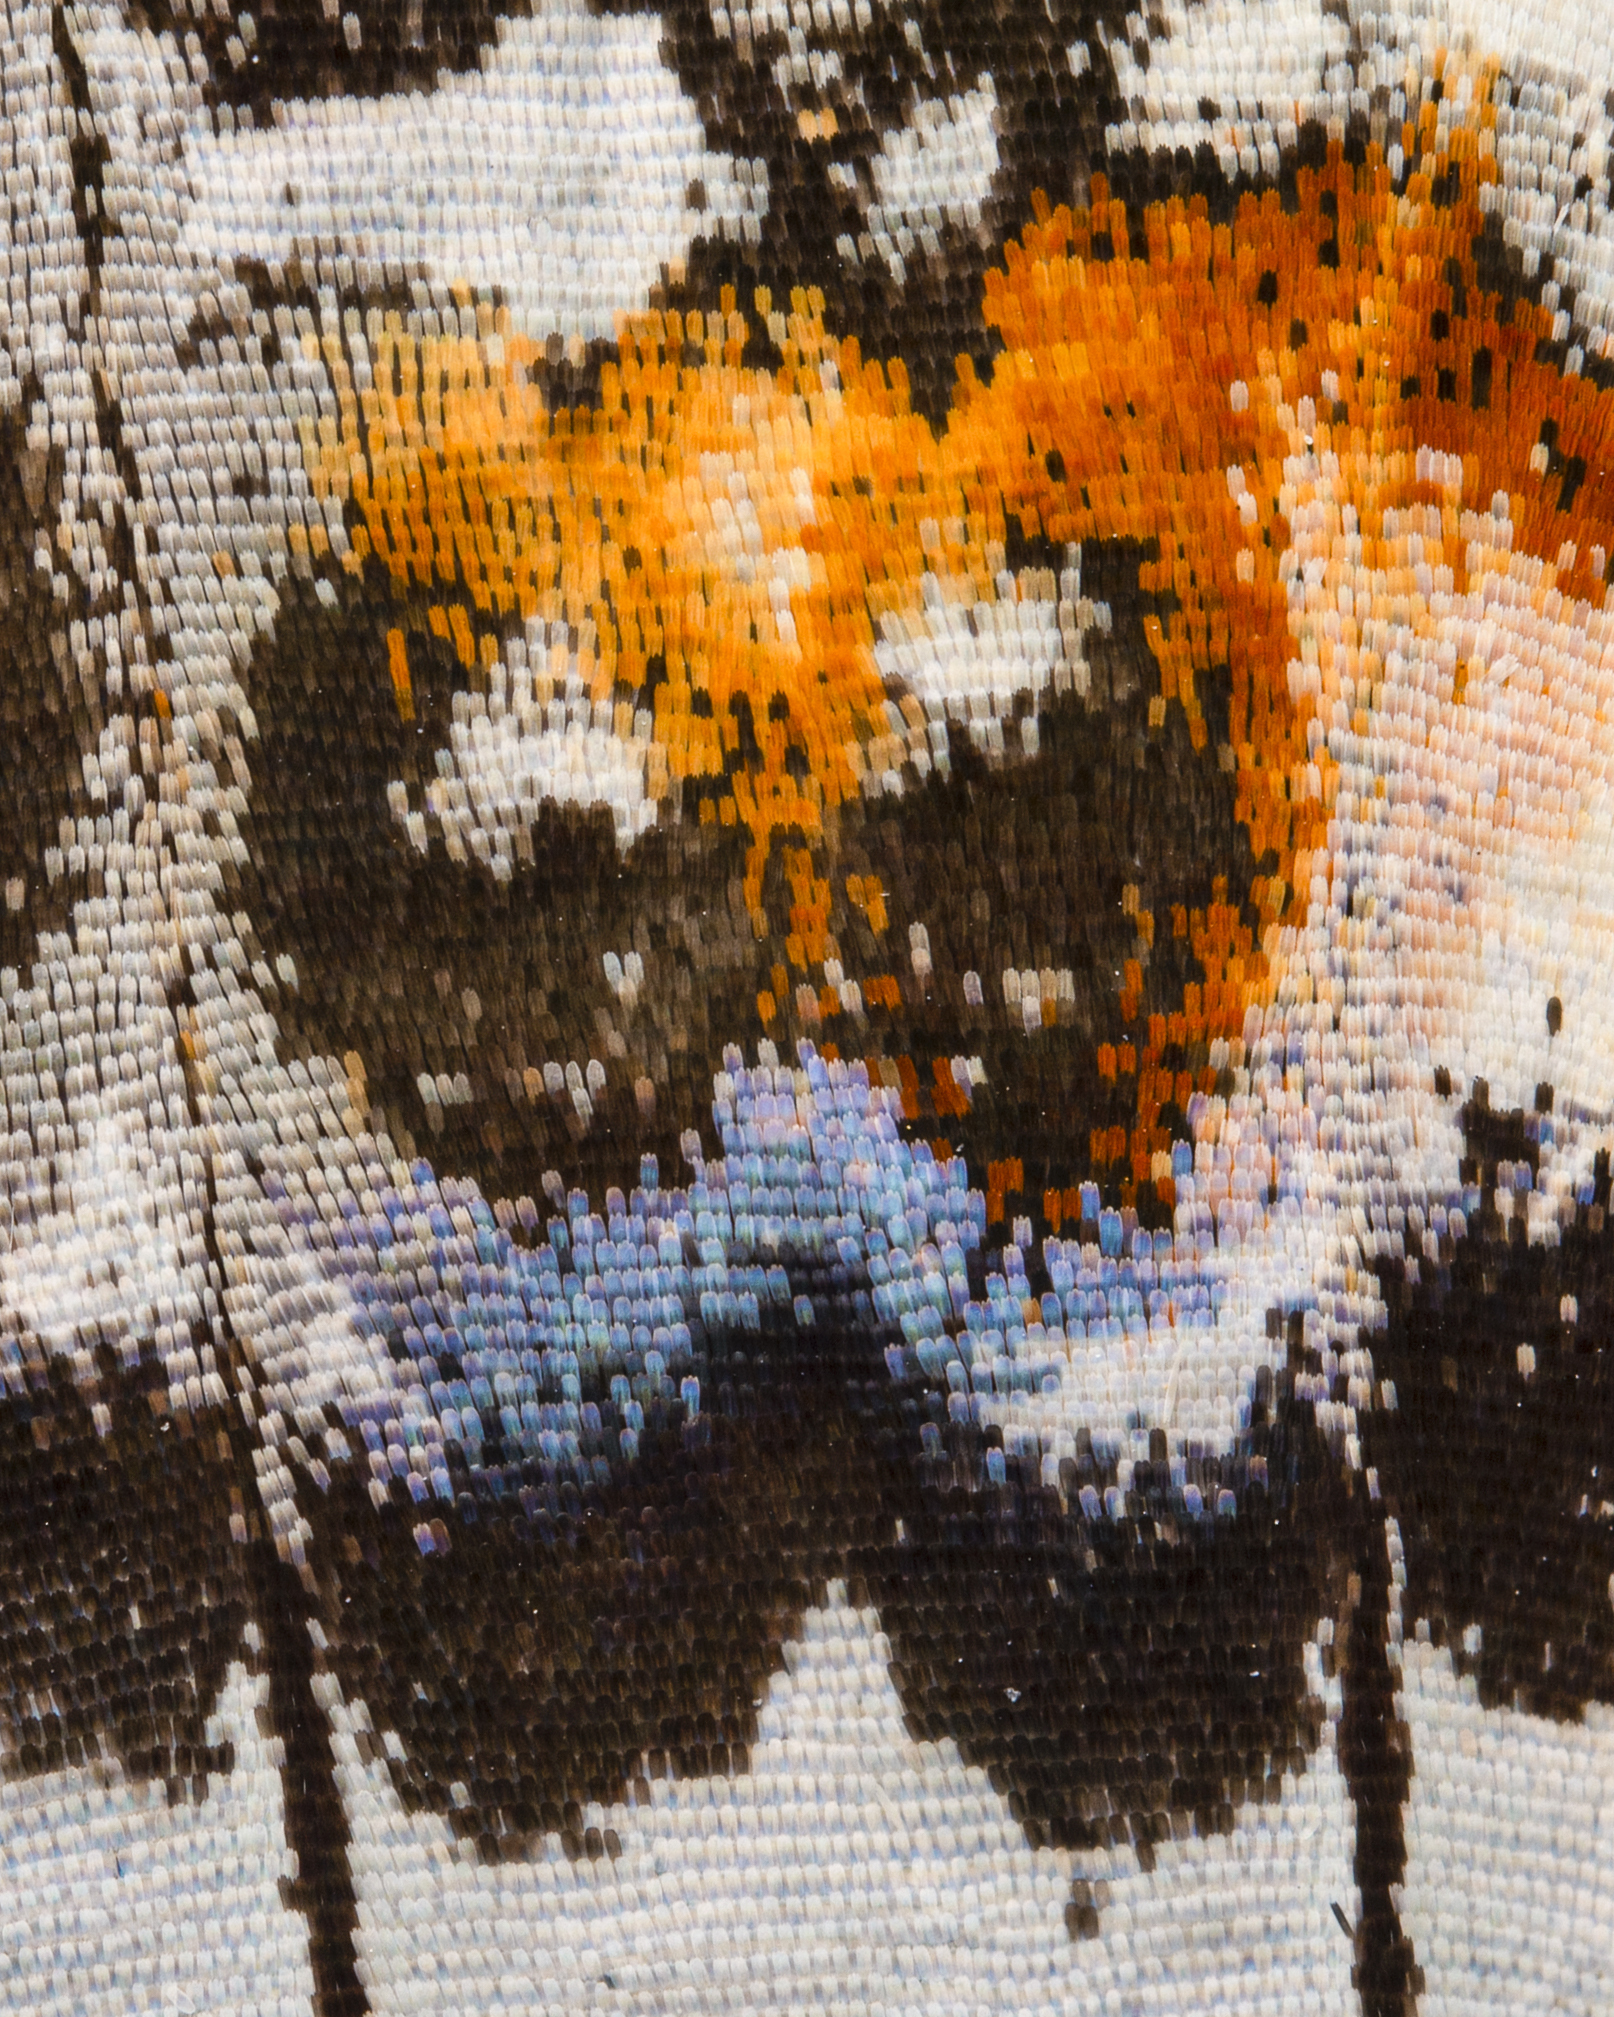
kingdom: Animalia
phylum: Arthropoda
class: Insecta
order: Lepidoptera
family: Nymphalidae
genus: Cyrestis
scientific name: Cyrestis thyodamas
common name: Common mapwing
